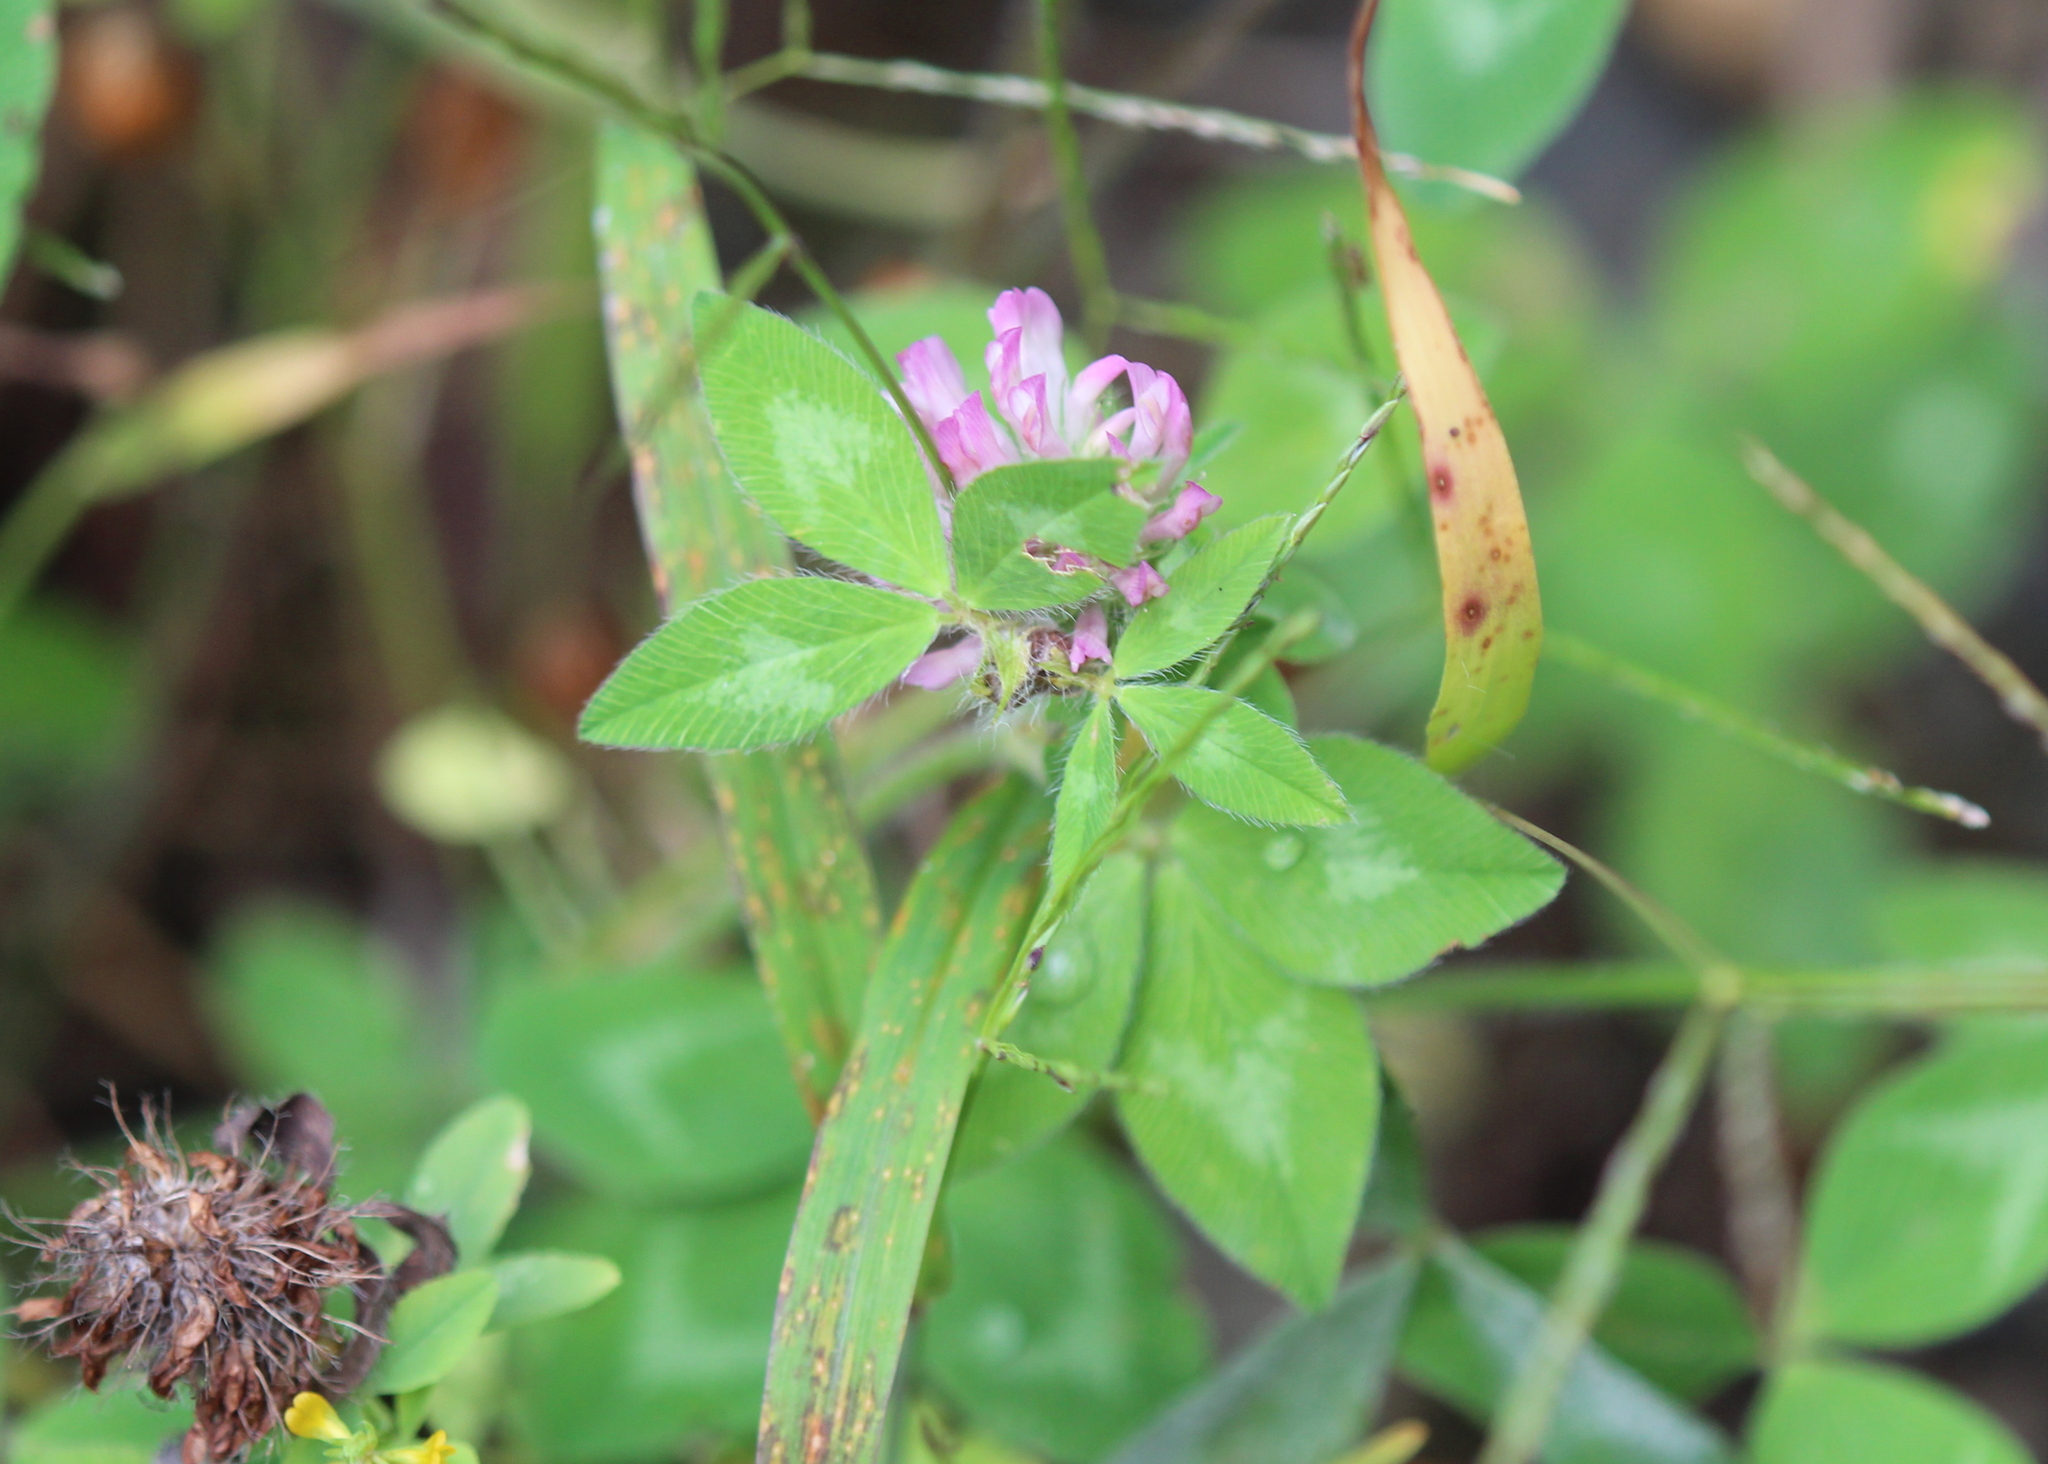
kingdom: Plantae
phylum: Tracheophyta
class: Magnoliopsida
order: Fabales
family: Fabaceae
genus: Trifolium
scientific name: Trifolium pratense
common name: Red clover
